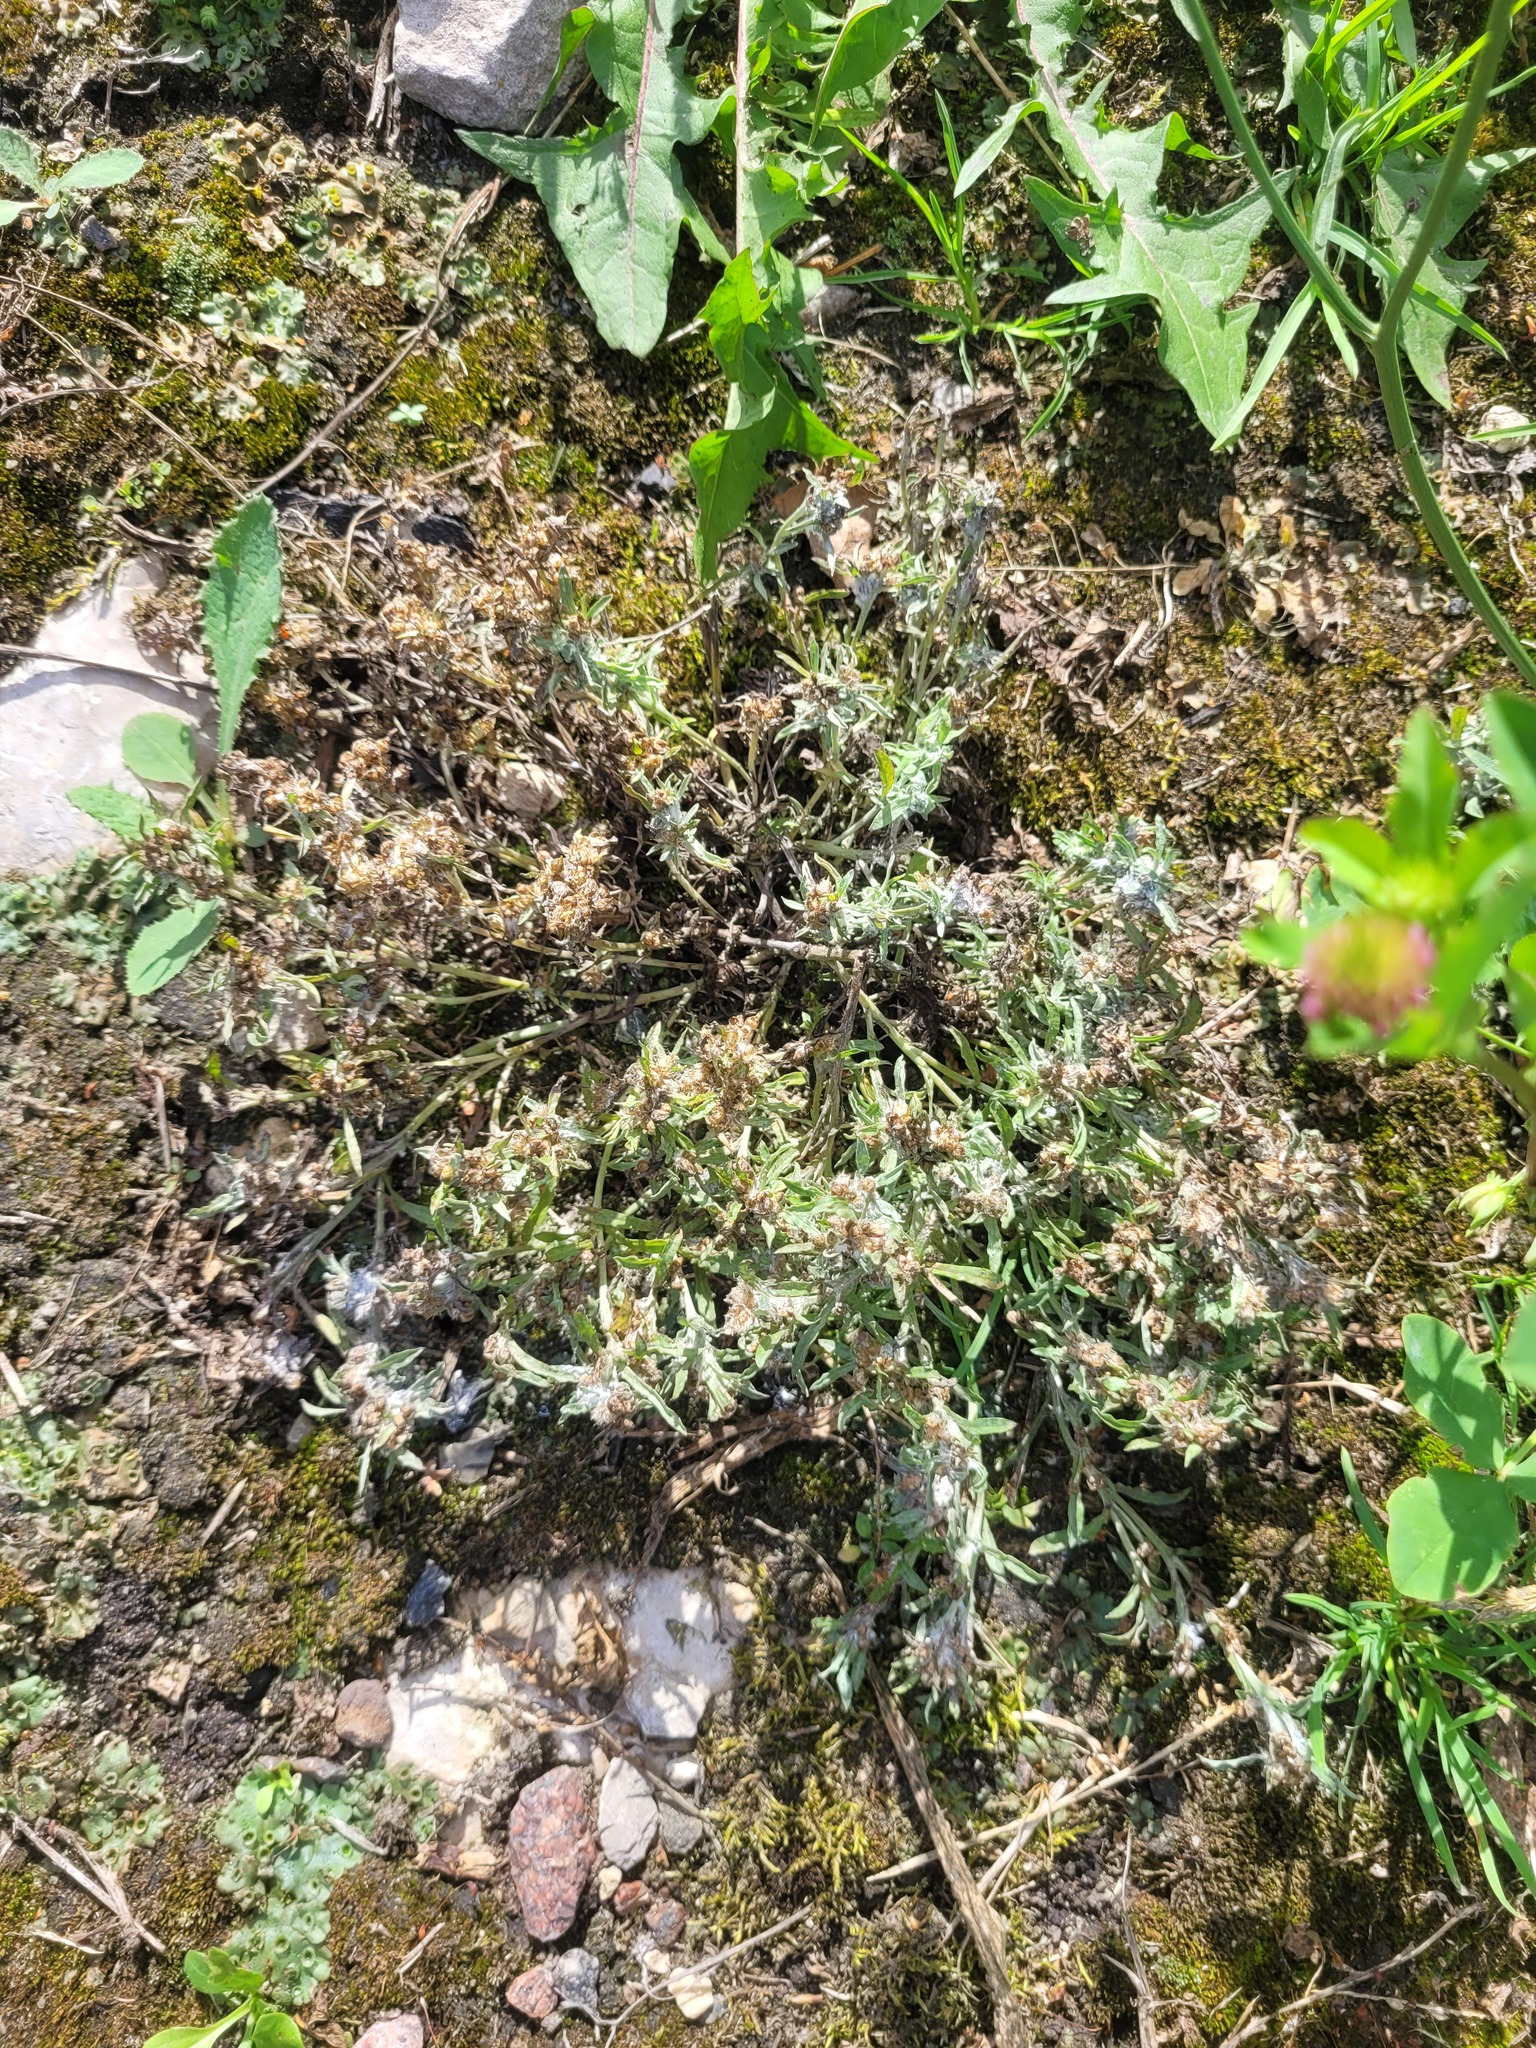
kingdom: Plantae
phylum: Tracheophyta
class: Magnoliopsida
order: Asterales
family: Asteraceae
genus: Gnaphalium
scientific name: Gnaphalium uliginosum
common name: Marsh cudweed
